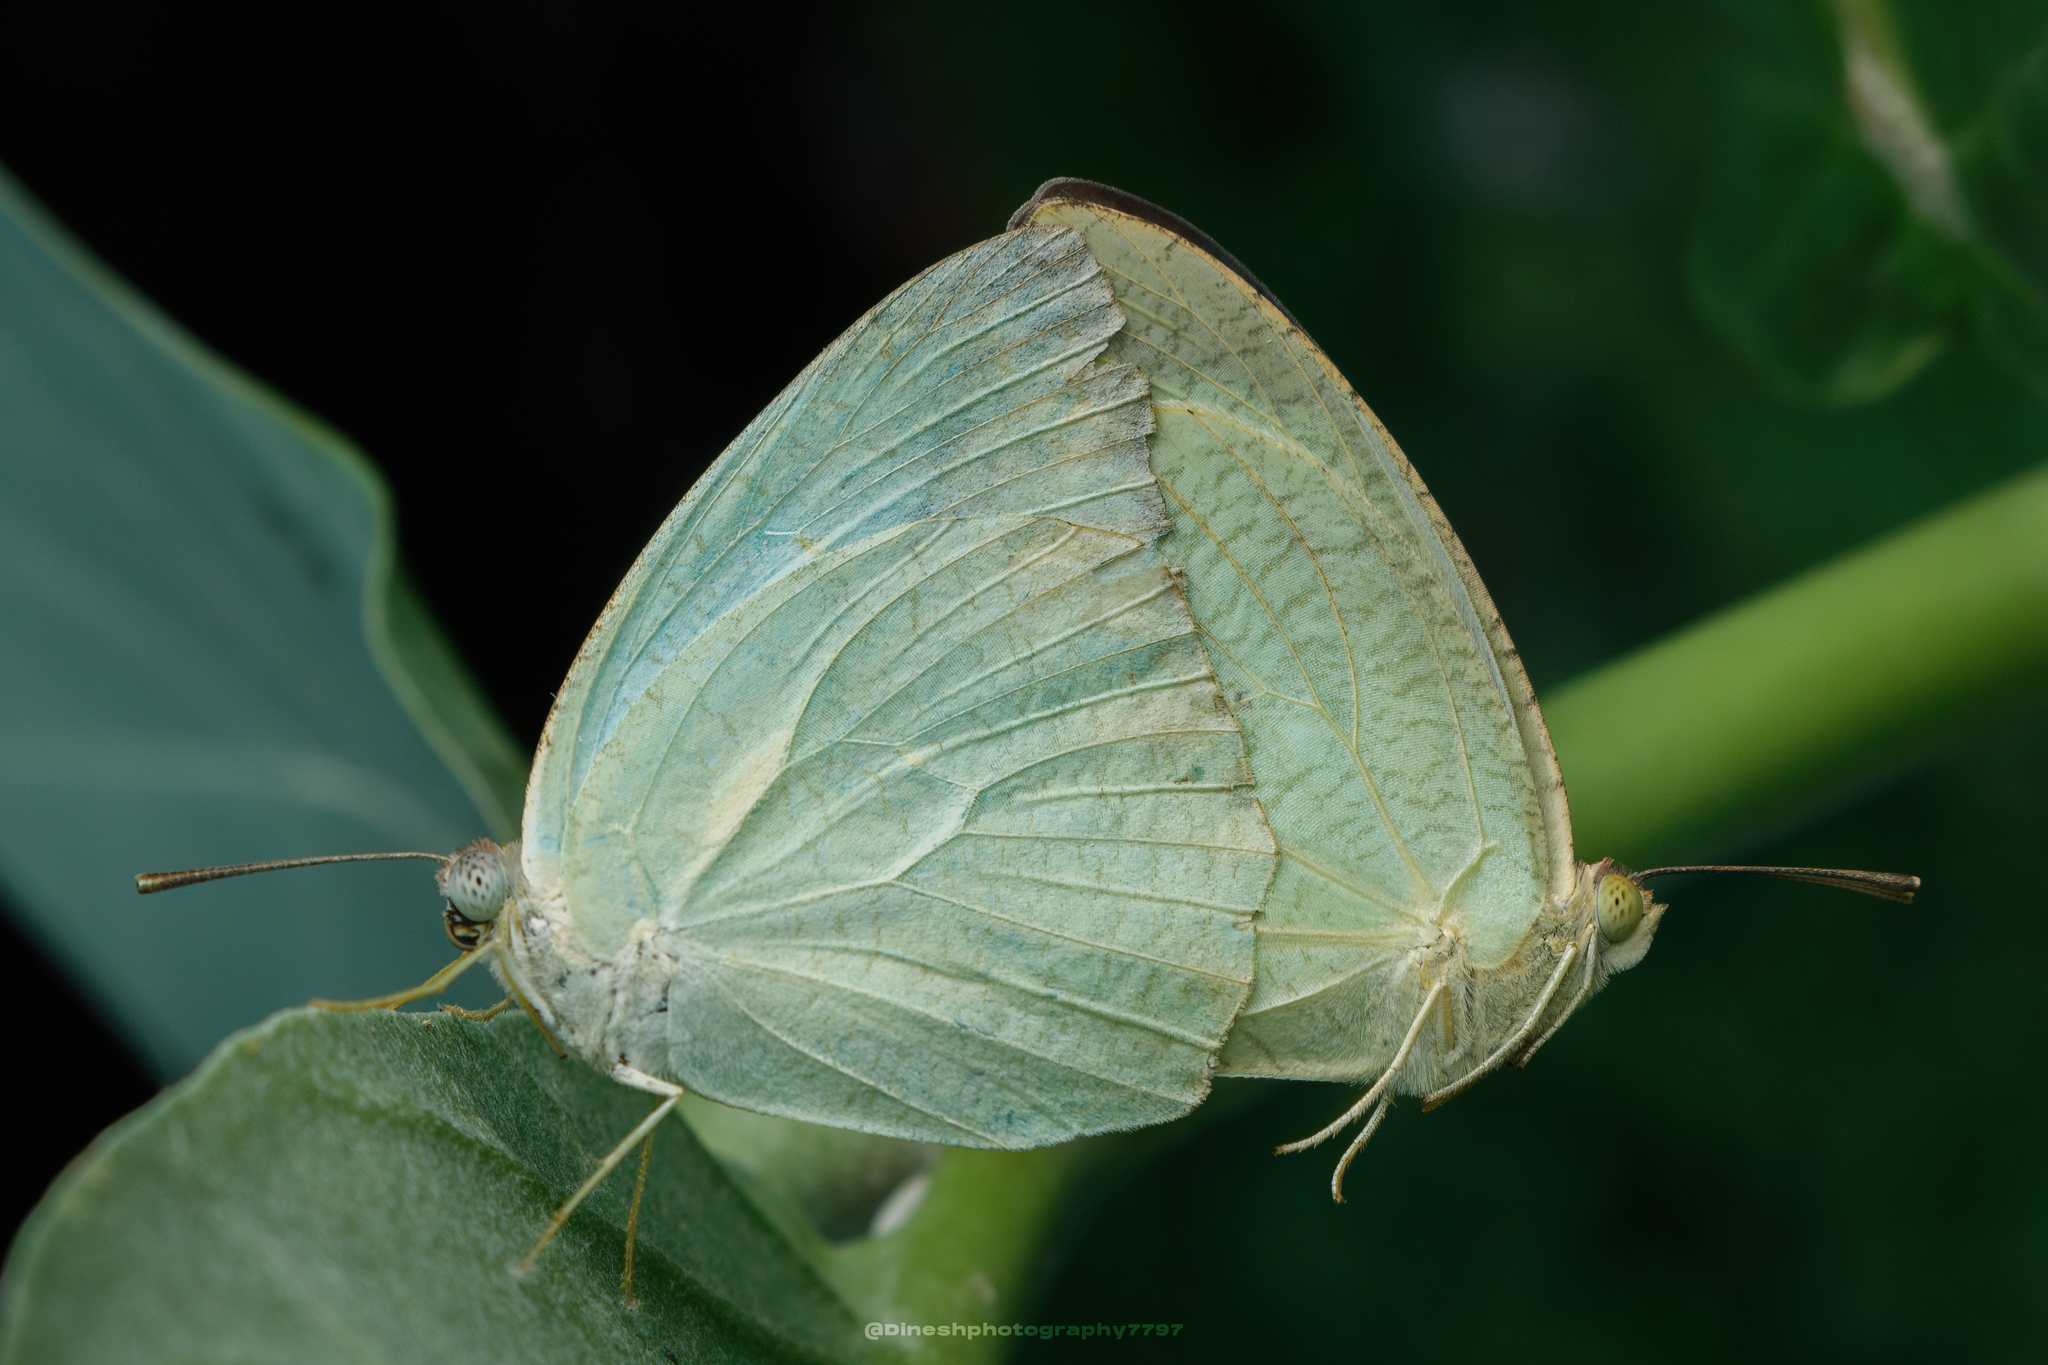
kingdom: Animalia
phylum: Arthropoda
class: Insecta
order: Lepidoptera
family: Pieridae
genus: Catopsilia
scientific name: Catopsilia pyranthe
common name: Mottled emigrant
